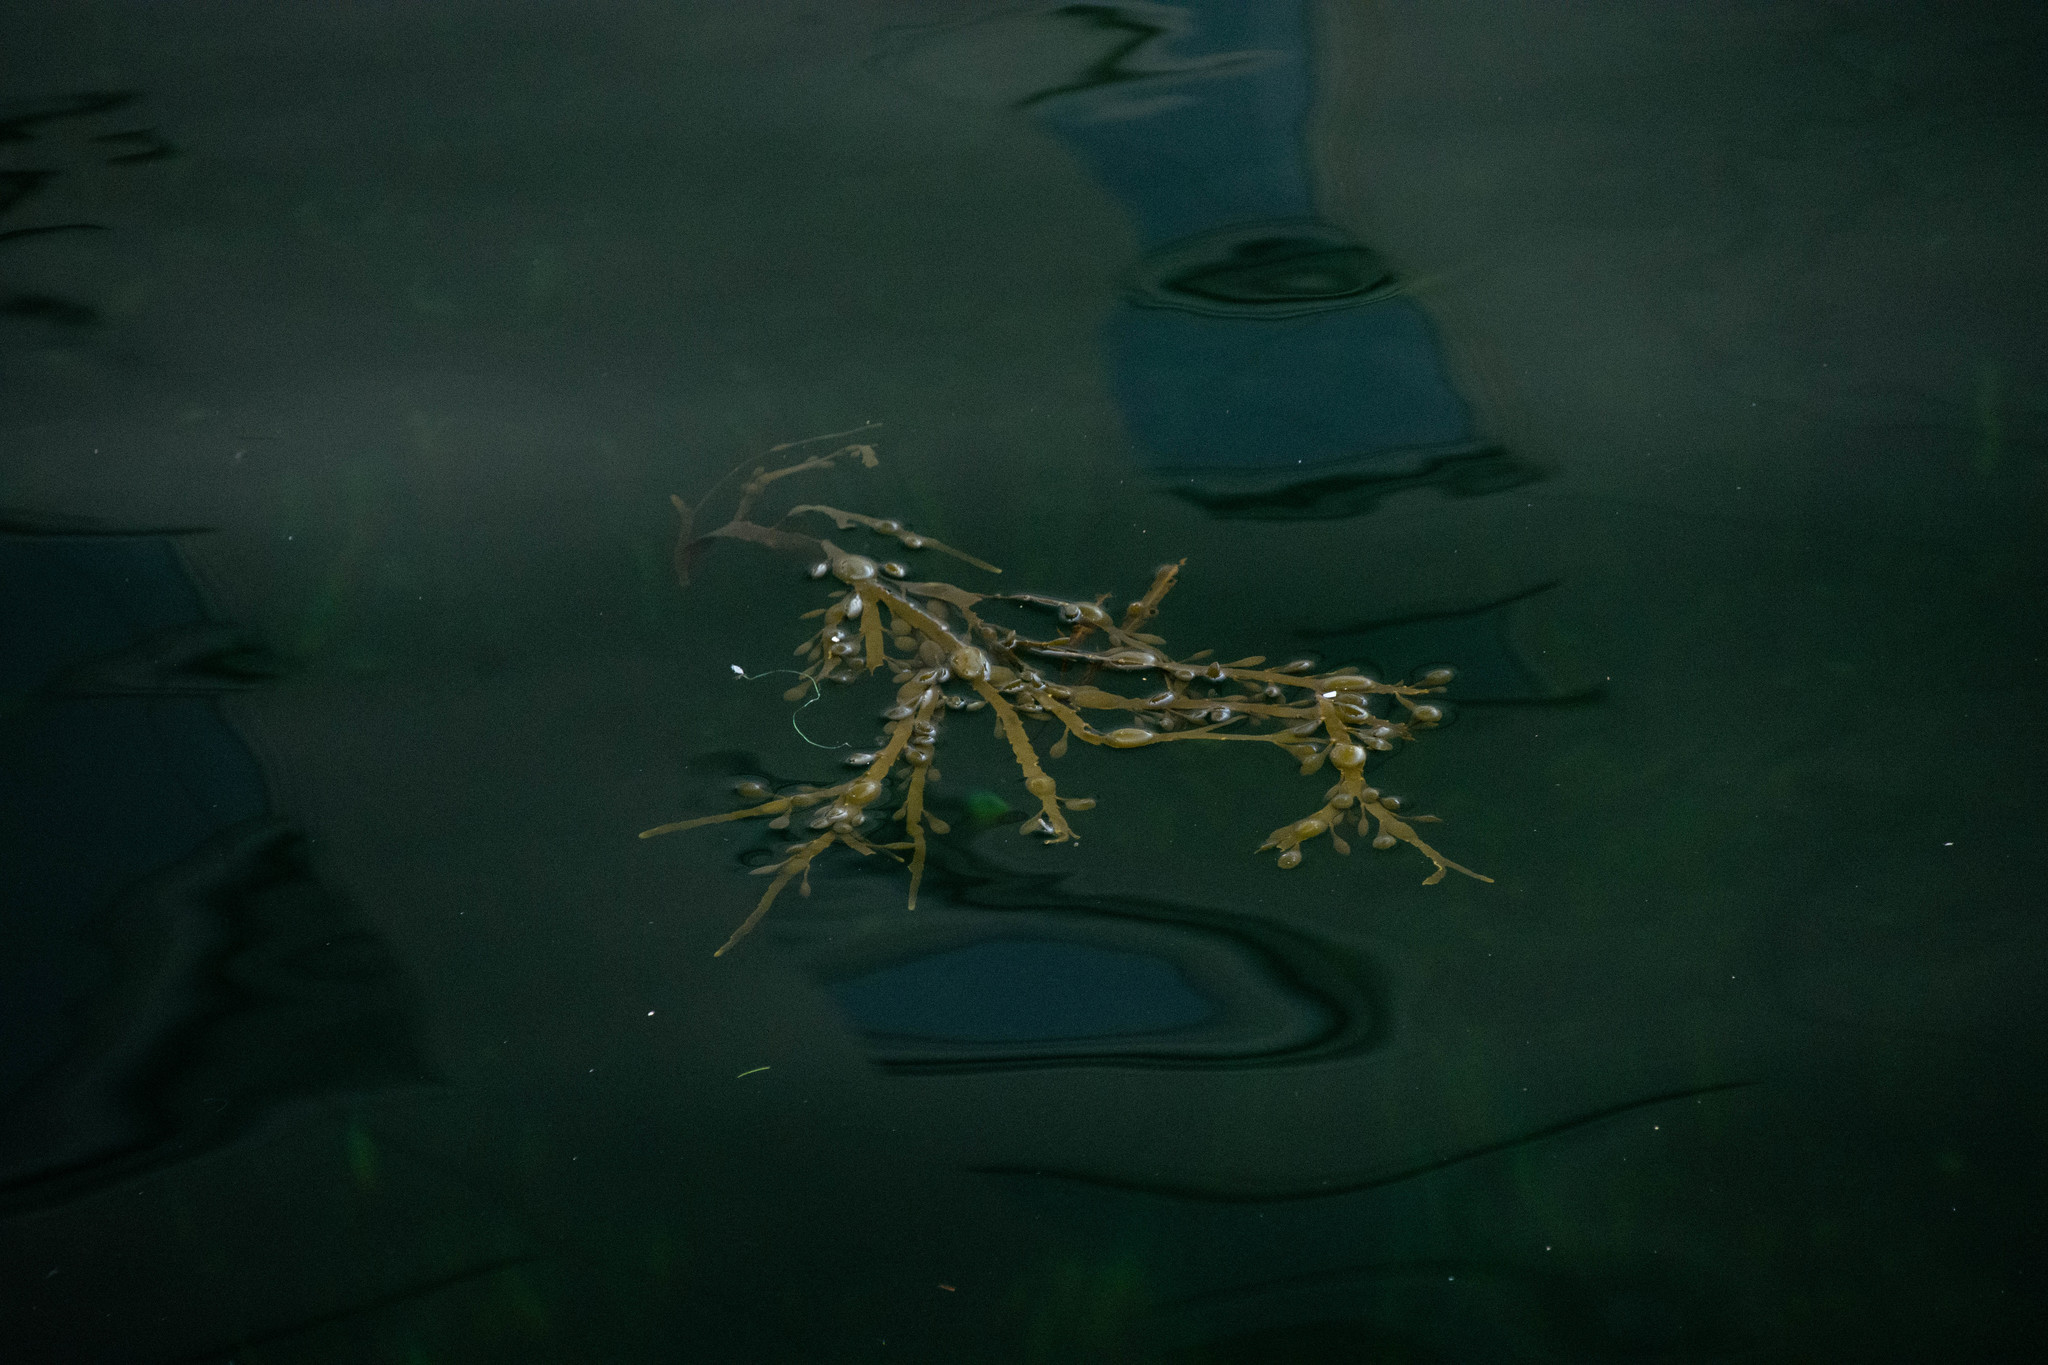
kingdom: Chromista
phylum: Ochrophyta
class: Phaeophyceae
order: Fucales
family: Fucaceae
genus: Ascophyllum
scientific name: Ascophyllum nodosum
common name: Knotted wrack
